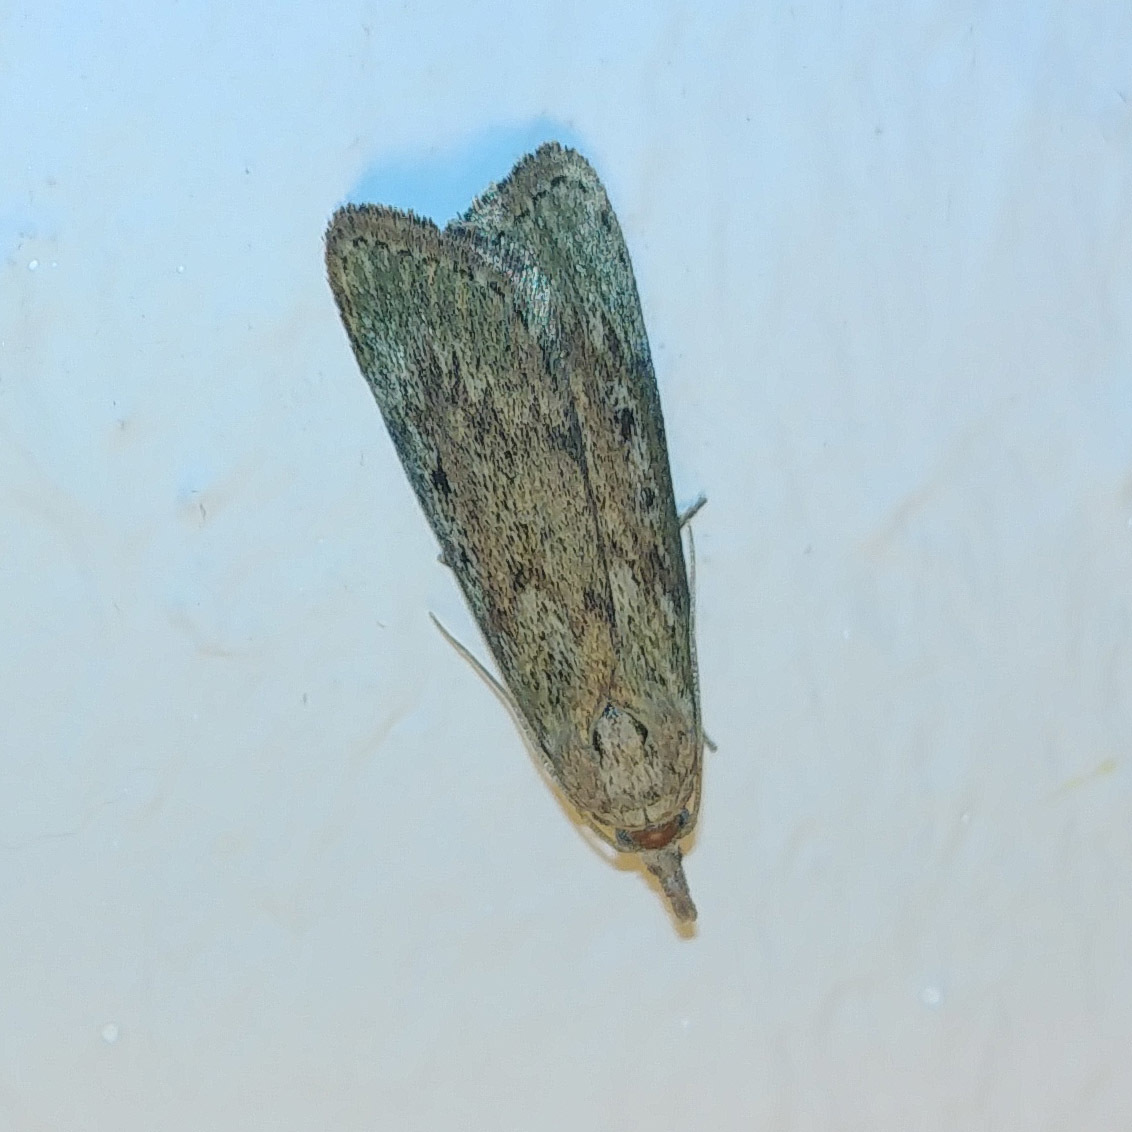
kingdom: Animalia
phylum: Arthropoda
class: Insecta
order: Lepidoptera
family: Pyralidae
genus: Aphomia
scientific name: Aphomia sociella
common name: Bee moth
